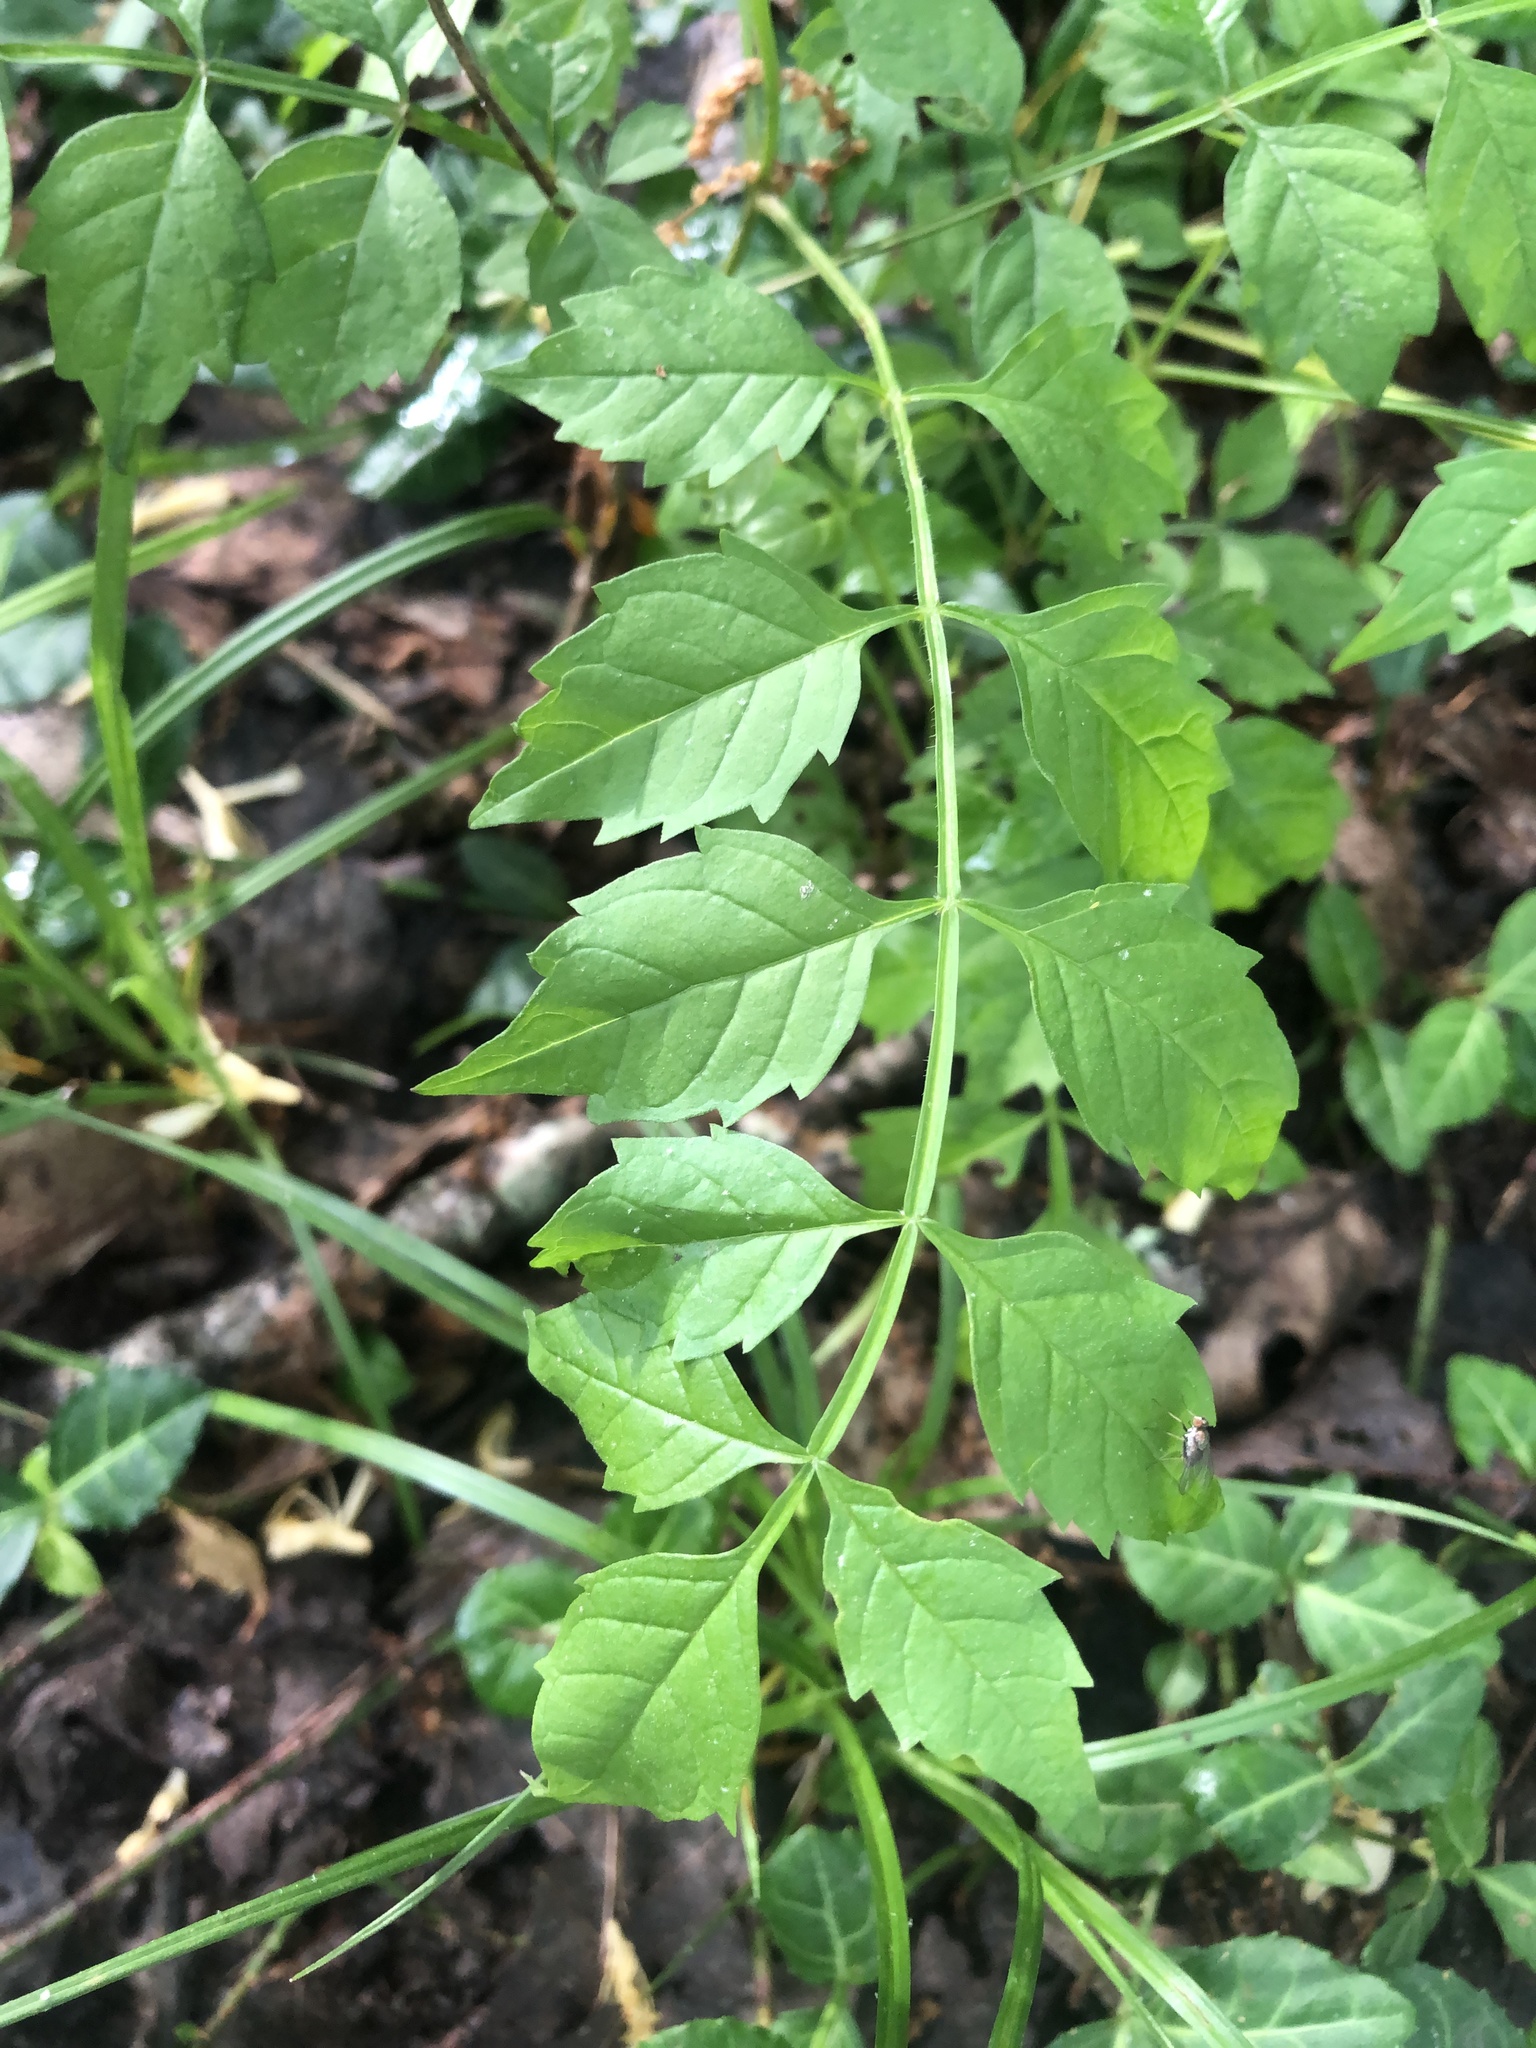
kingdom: Plantae
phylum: Tracheophyta
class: Magnoliopsida
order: Lamiales
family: Bignoniaceae
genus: Campsis
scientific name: Campsis radicans
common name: Trumpet-creeper
